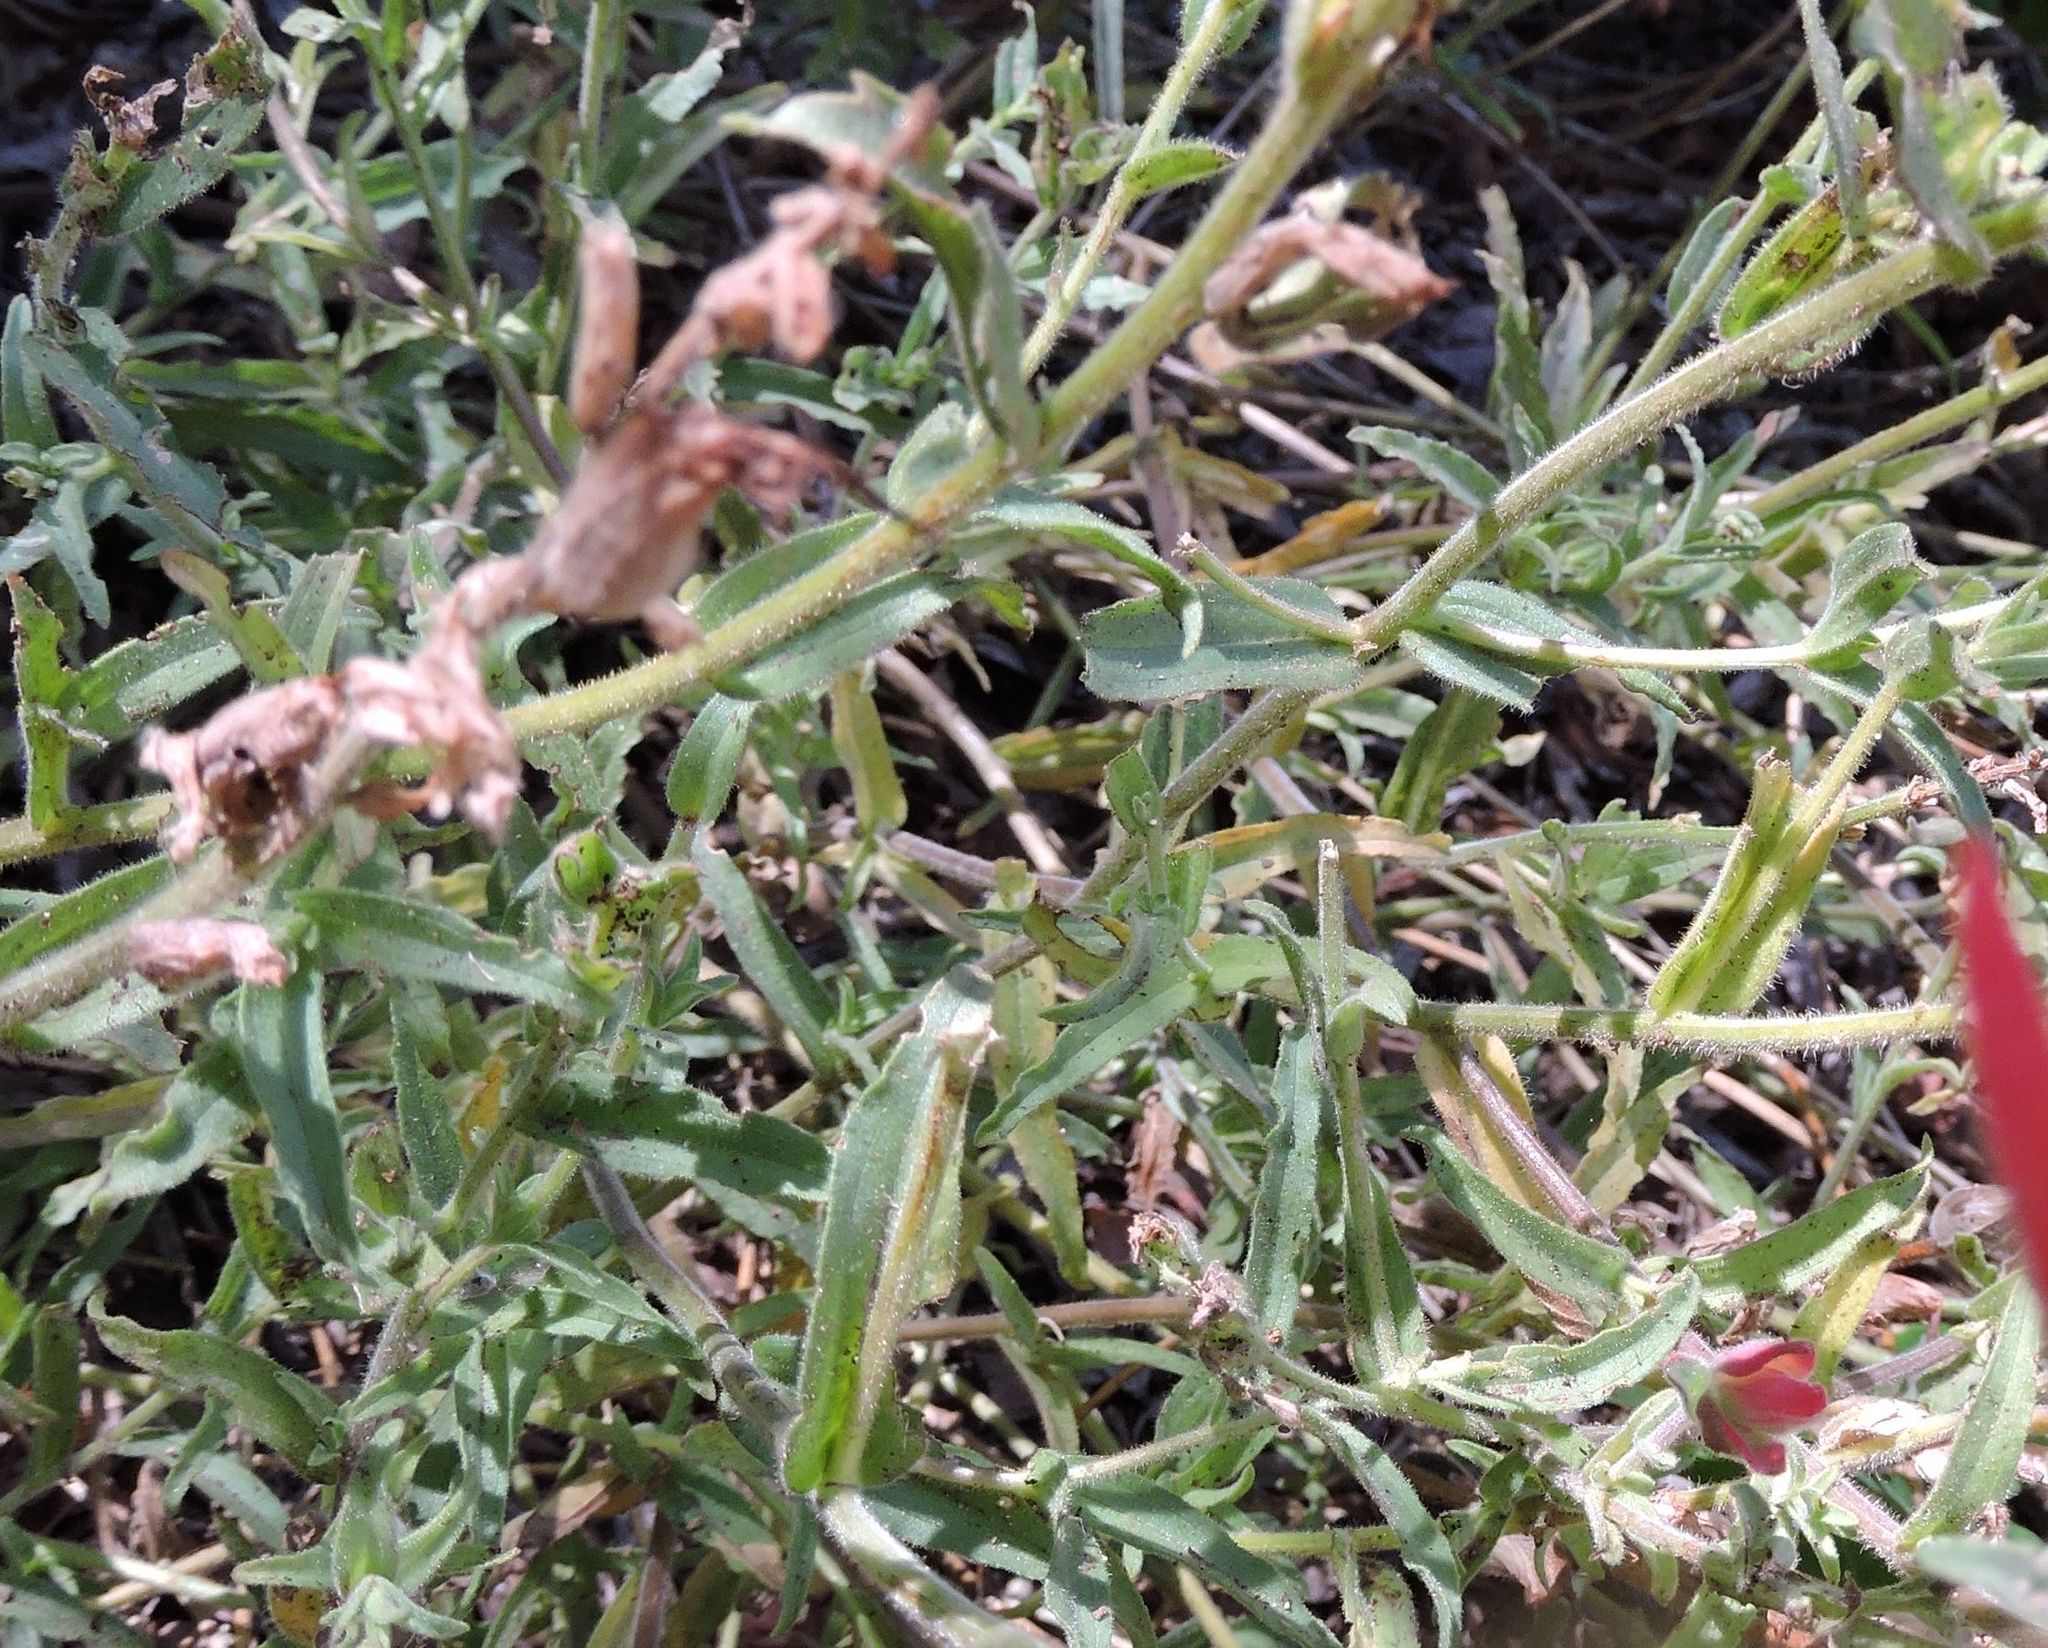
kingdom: Plantae
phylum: Tracheophyta
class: Magnoliopsida
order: Lamiales
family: Orobanchaceae
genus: Castilleja
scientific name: Castilleja applegatei
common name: Wavy-leaf paintbrush
